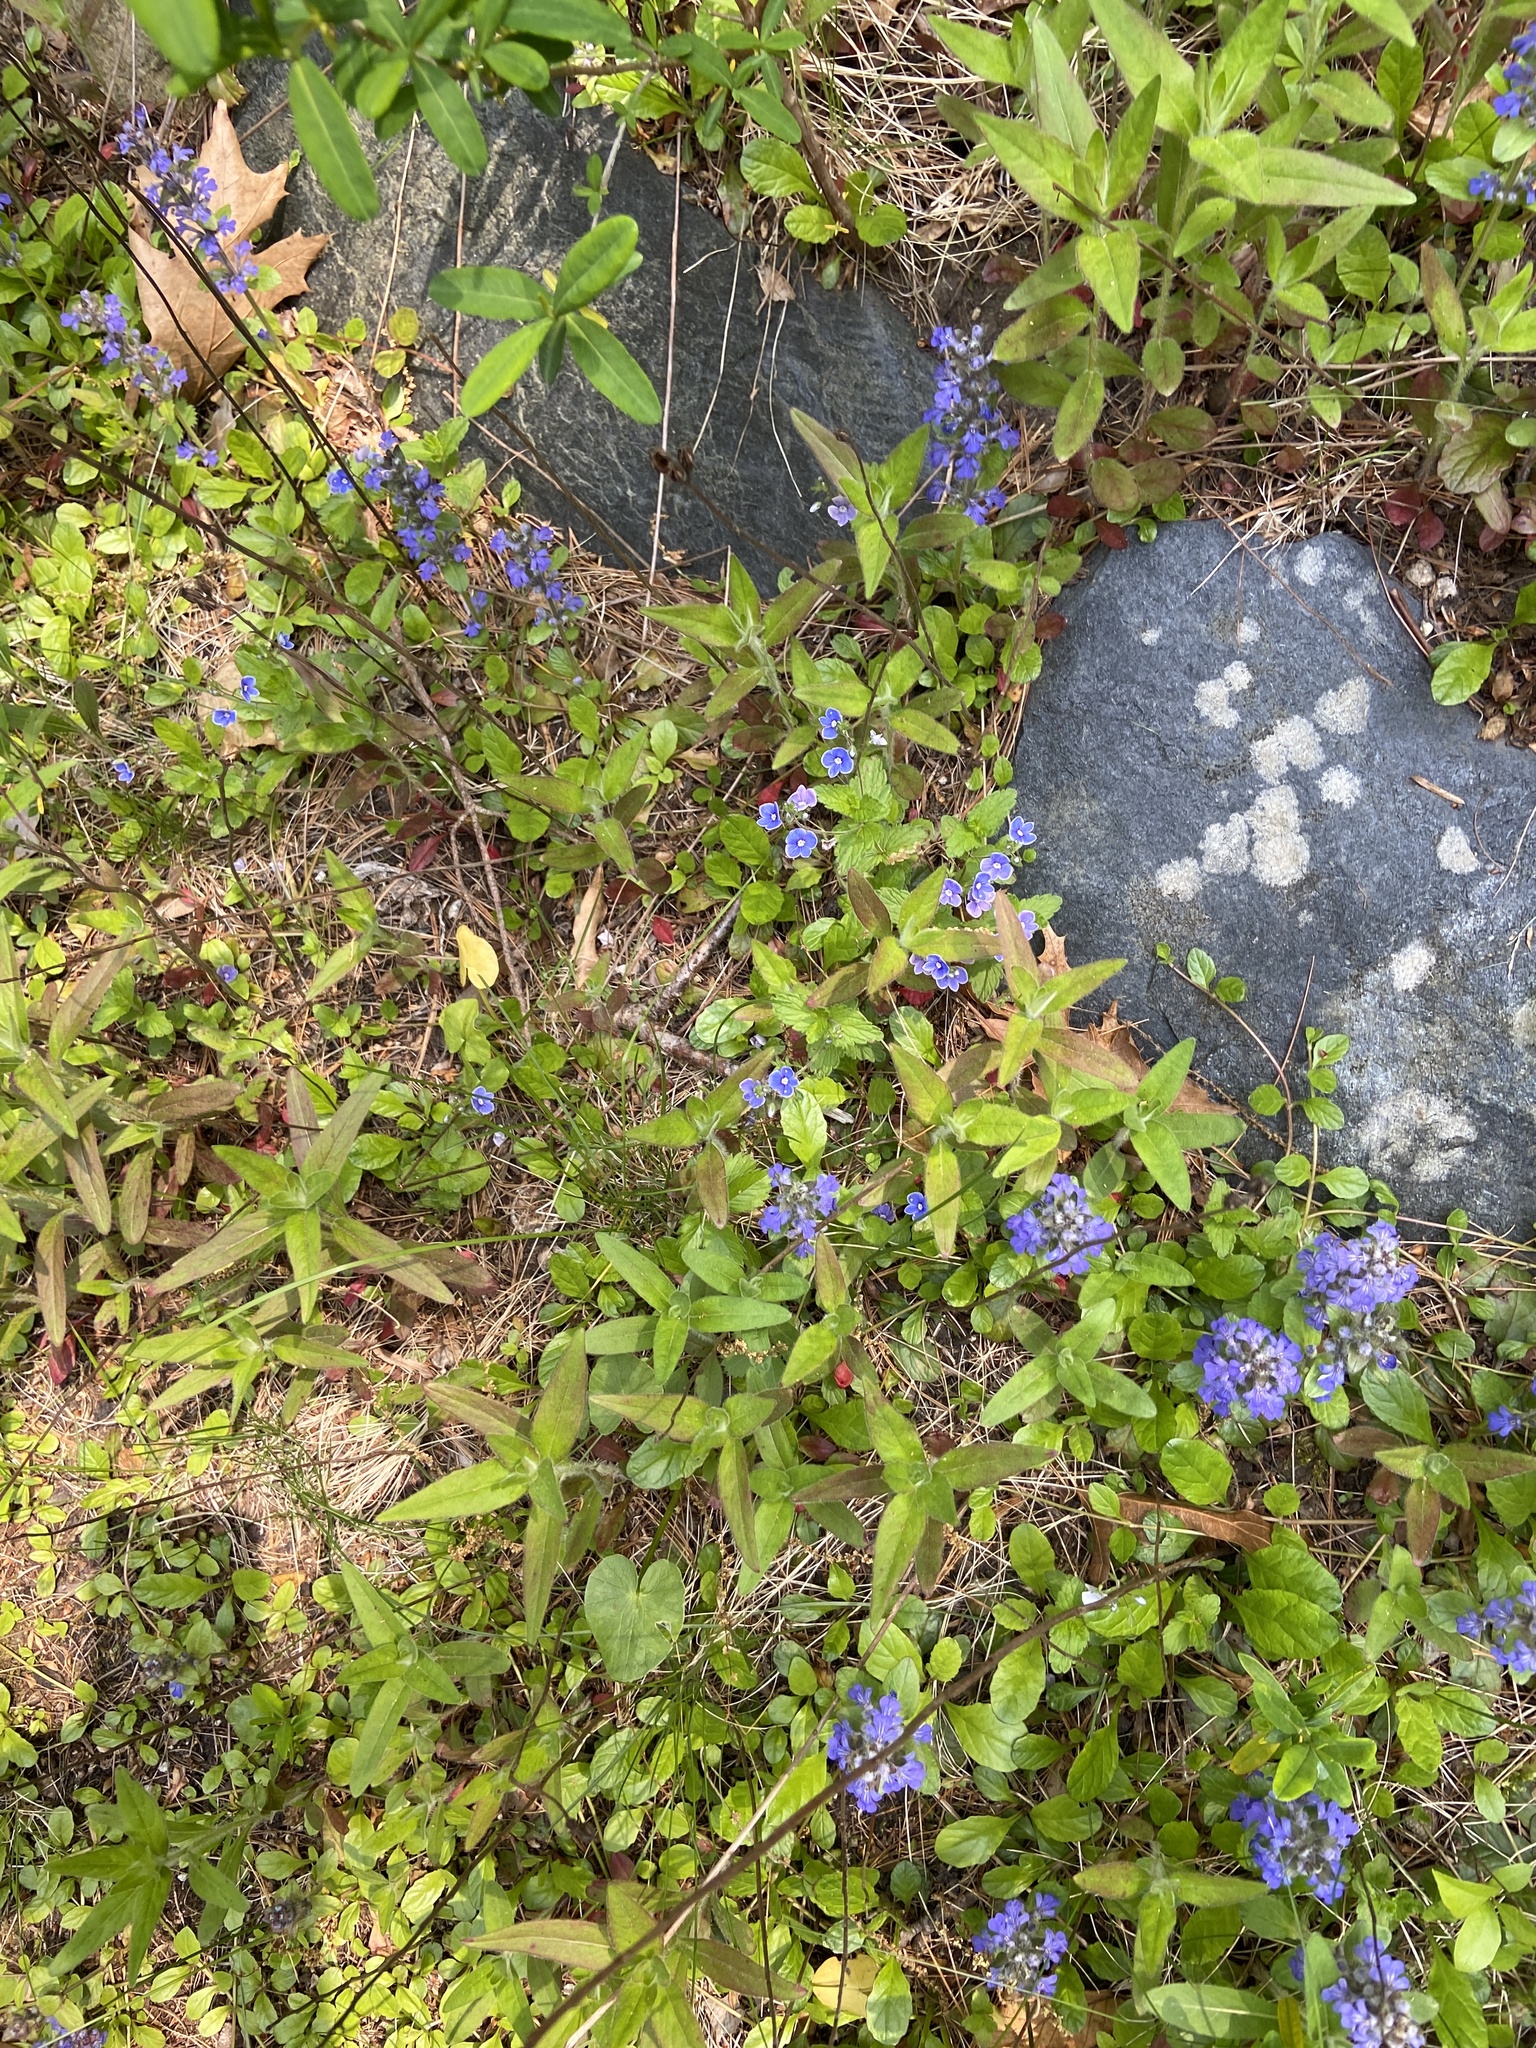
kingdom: Plantae
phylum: Tracheophyta
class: Magnoliopsida
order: Lamiales
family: Plantaginaceae
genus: Veronica
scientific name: Veronica chamaedrys
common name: Germander speedwell
